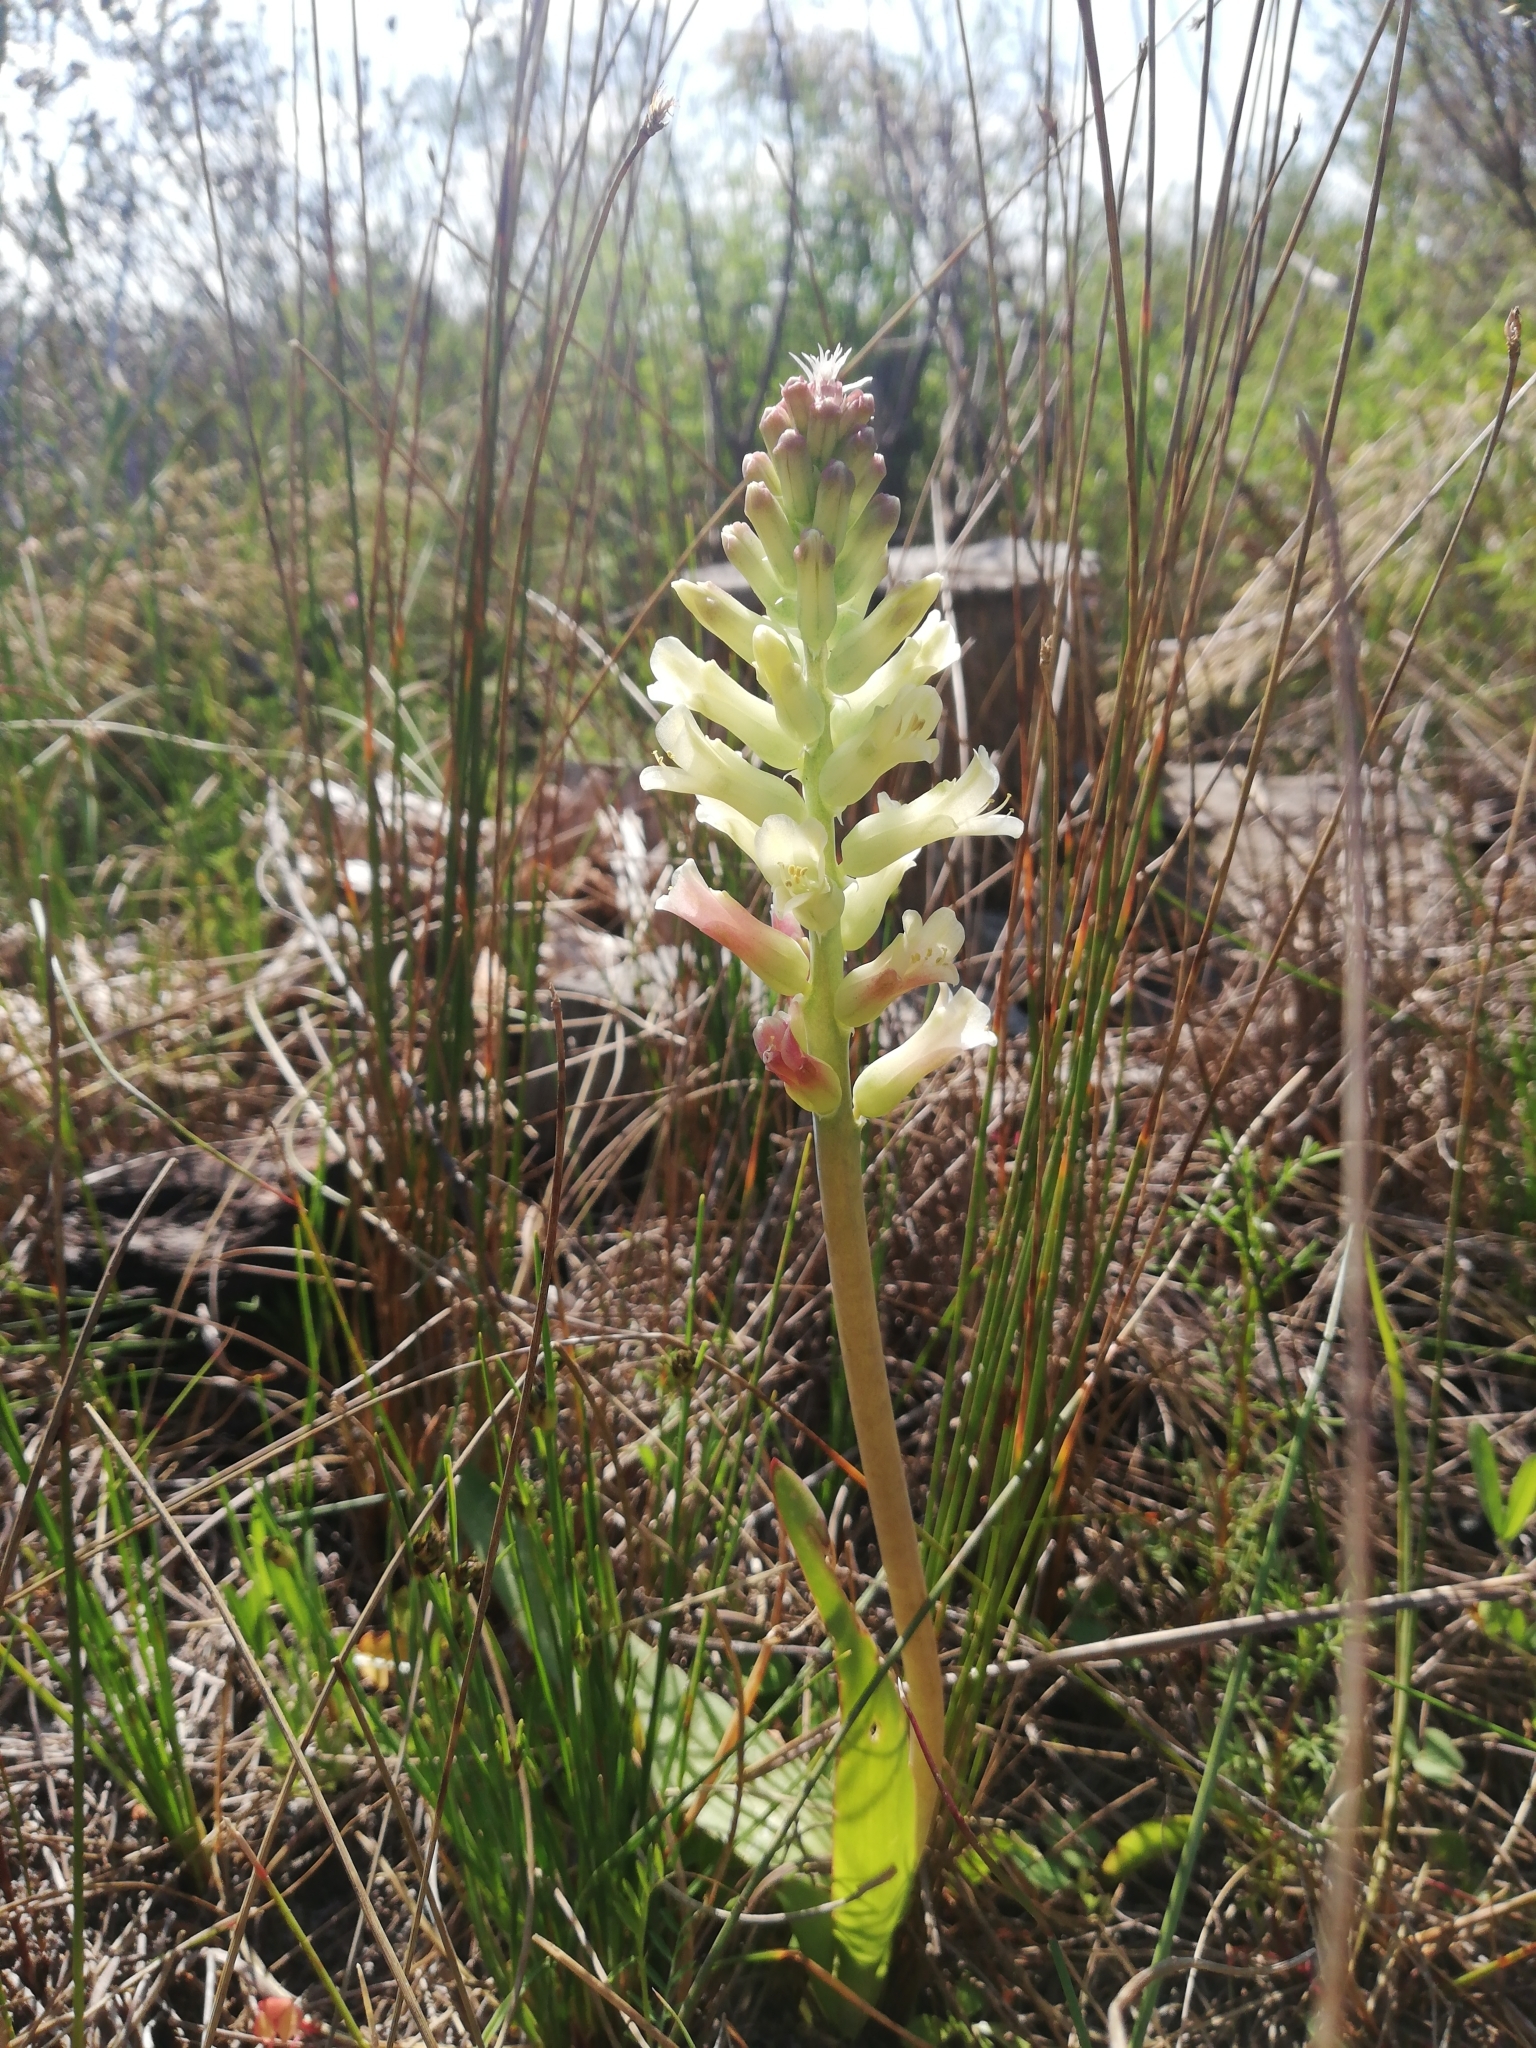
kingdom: Plantae
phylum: Tracheophyta
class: Liliopsida
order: Asparagales
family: Asparagaceae
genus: Lachenalia
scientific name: Lachenalia orchioides
